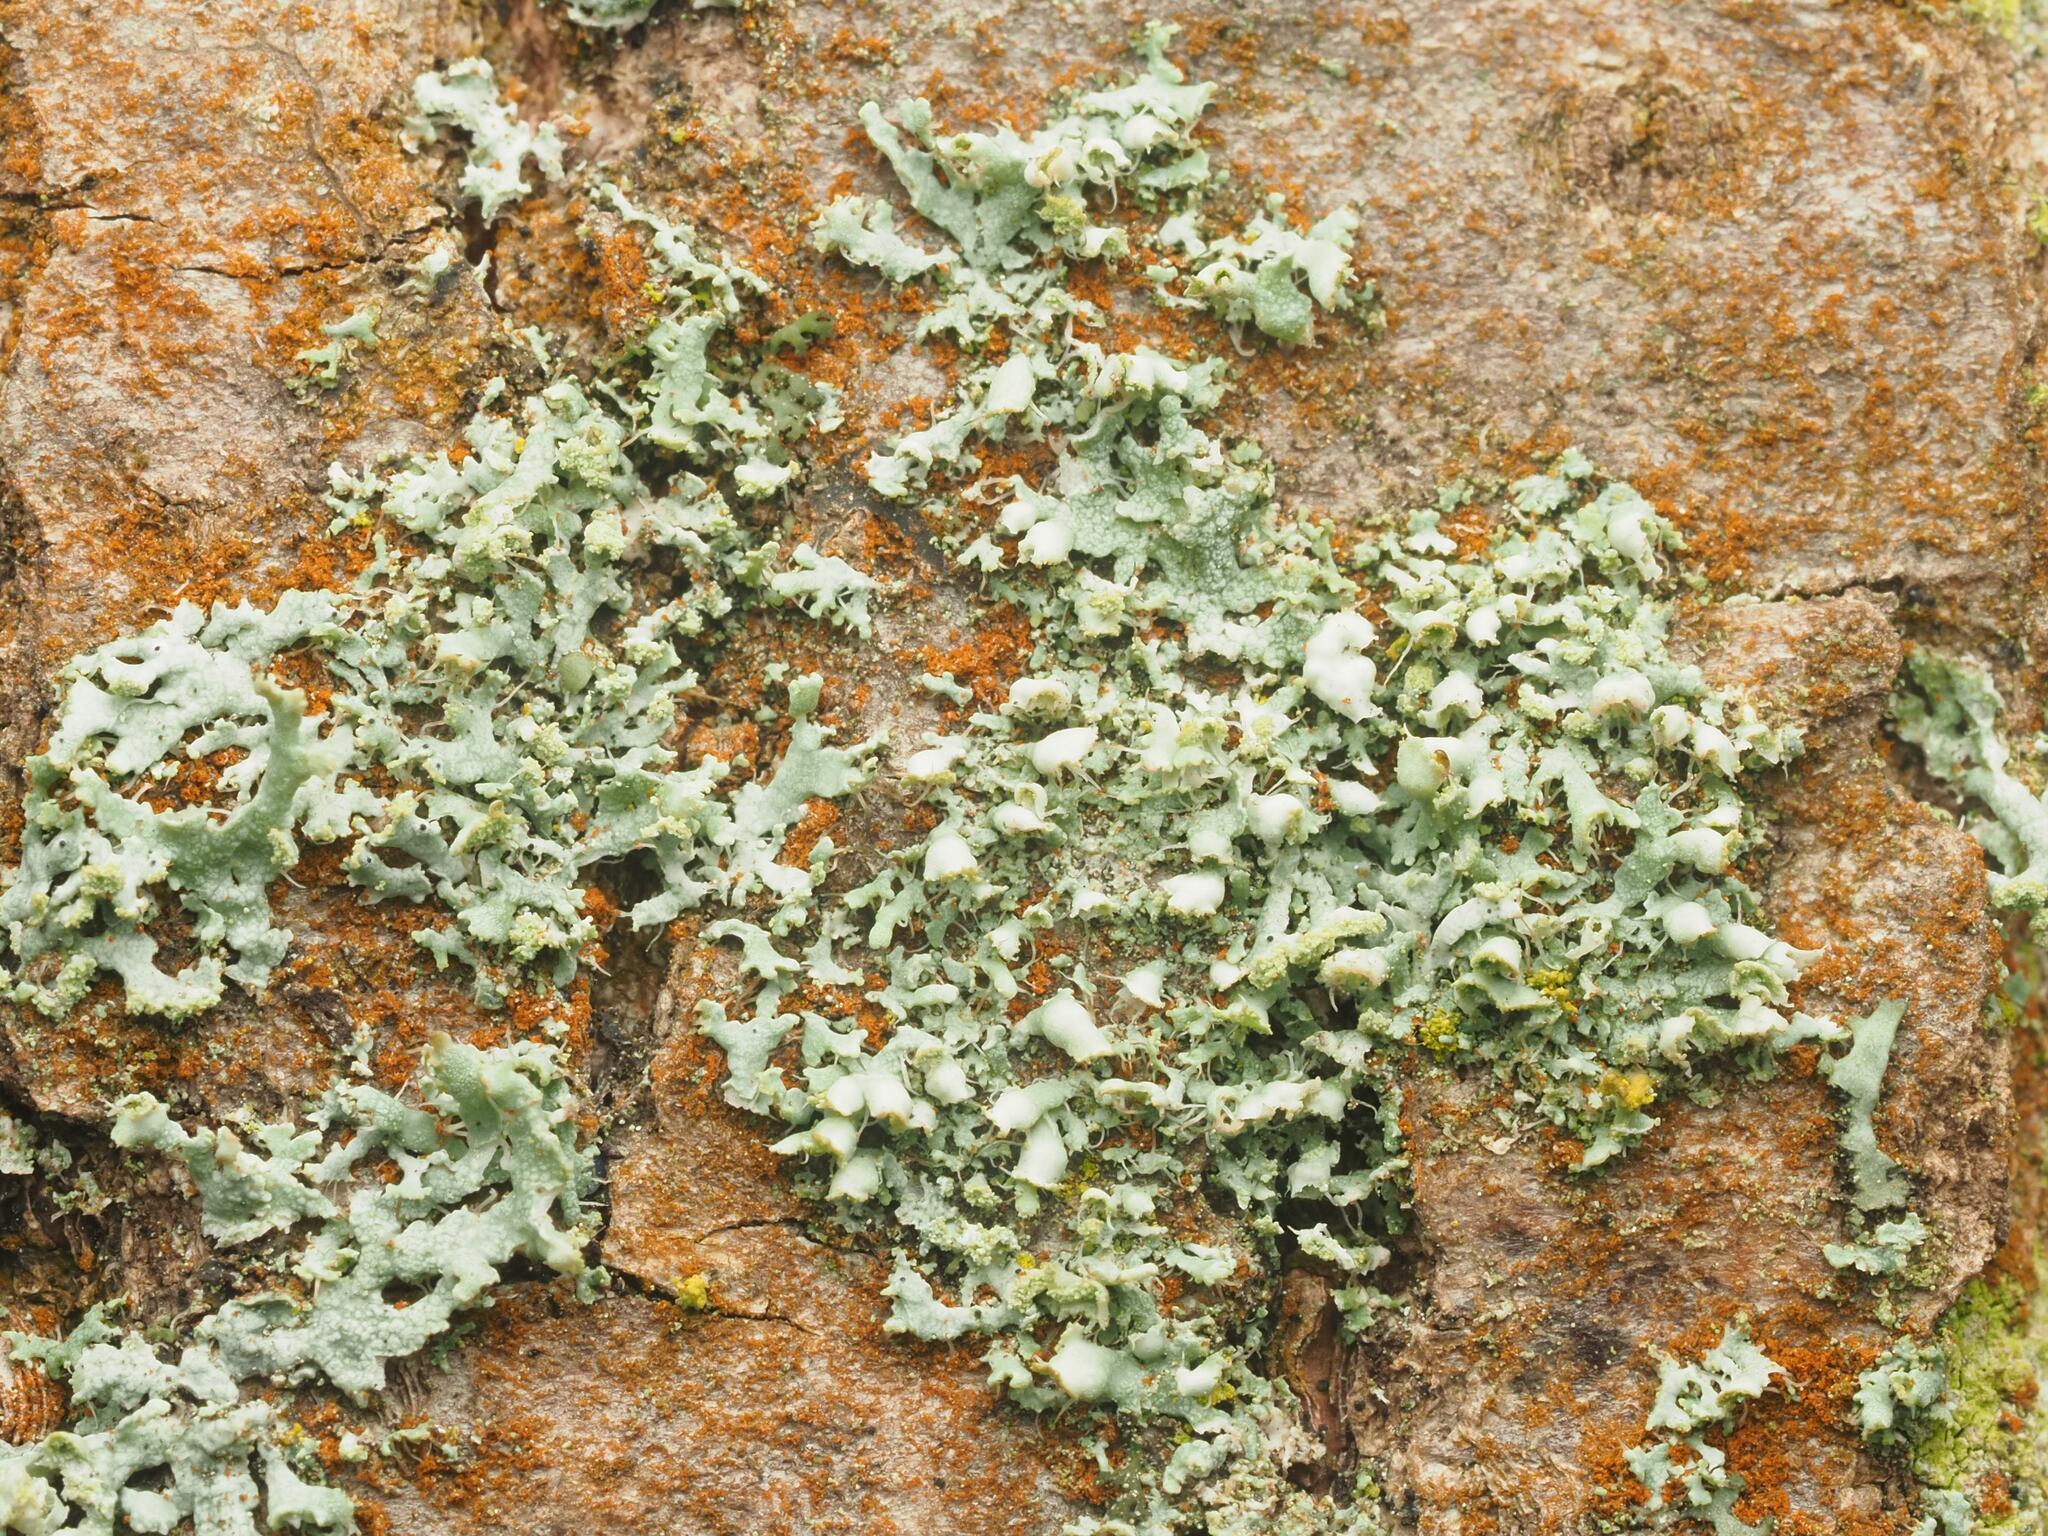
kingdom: Fungi
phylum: Ascomycota
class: Lecanoromycetes
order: Caliciales
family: Physciaceae
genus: Physcia
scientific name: Physcia adscendens
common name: Hooded rosette lichen
